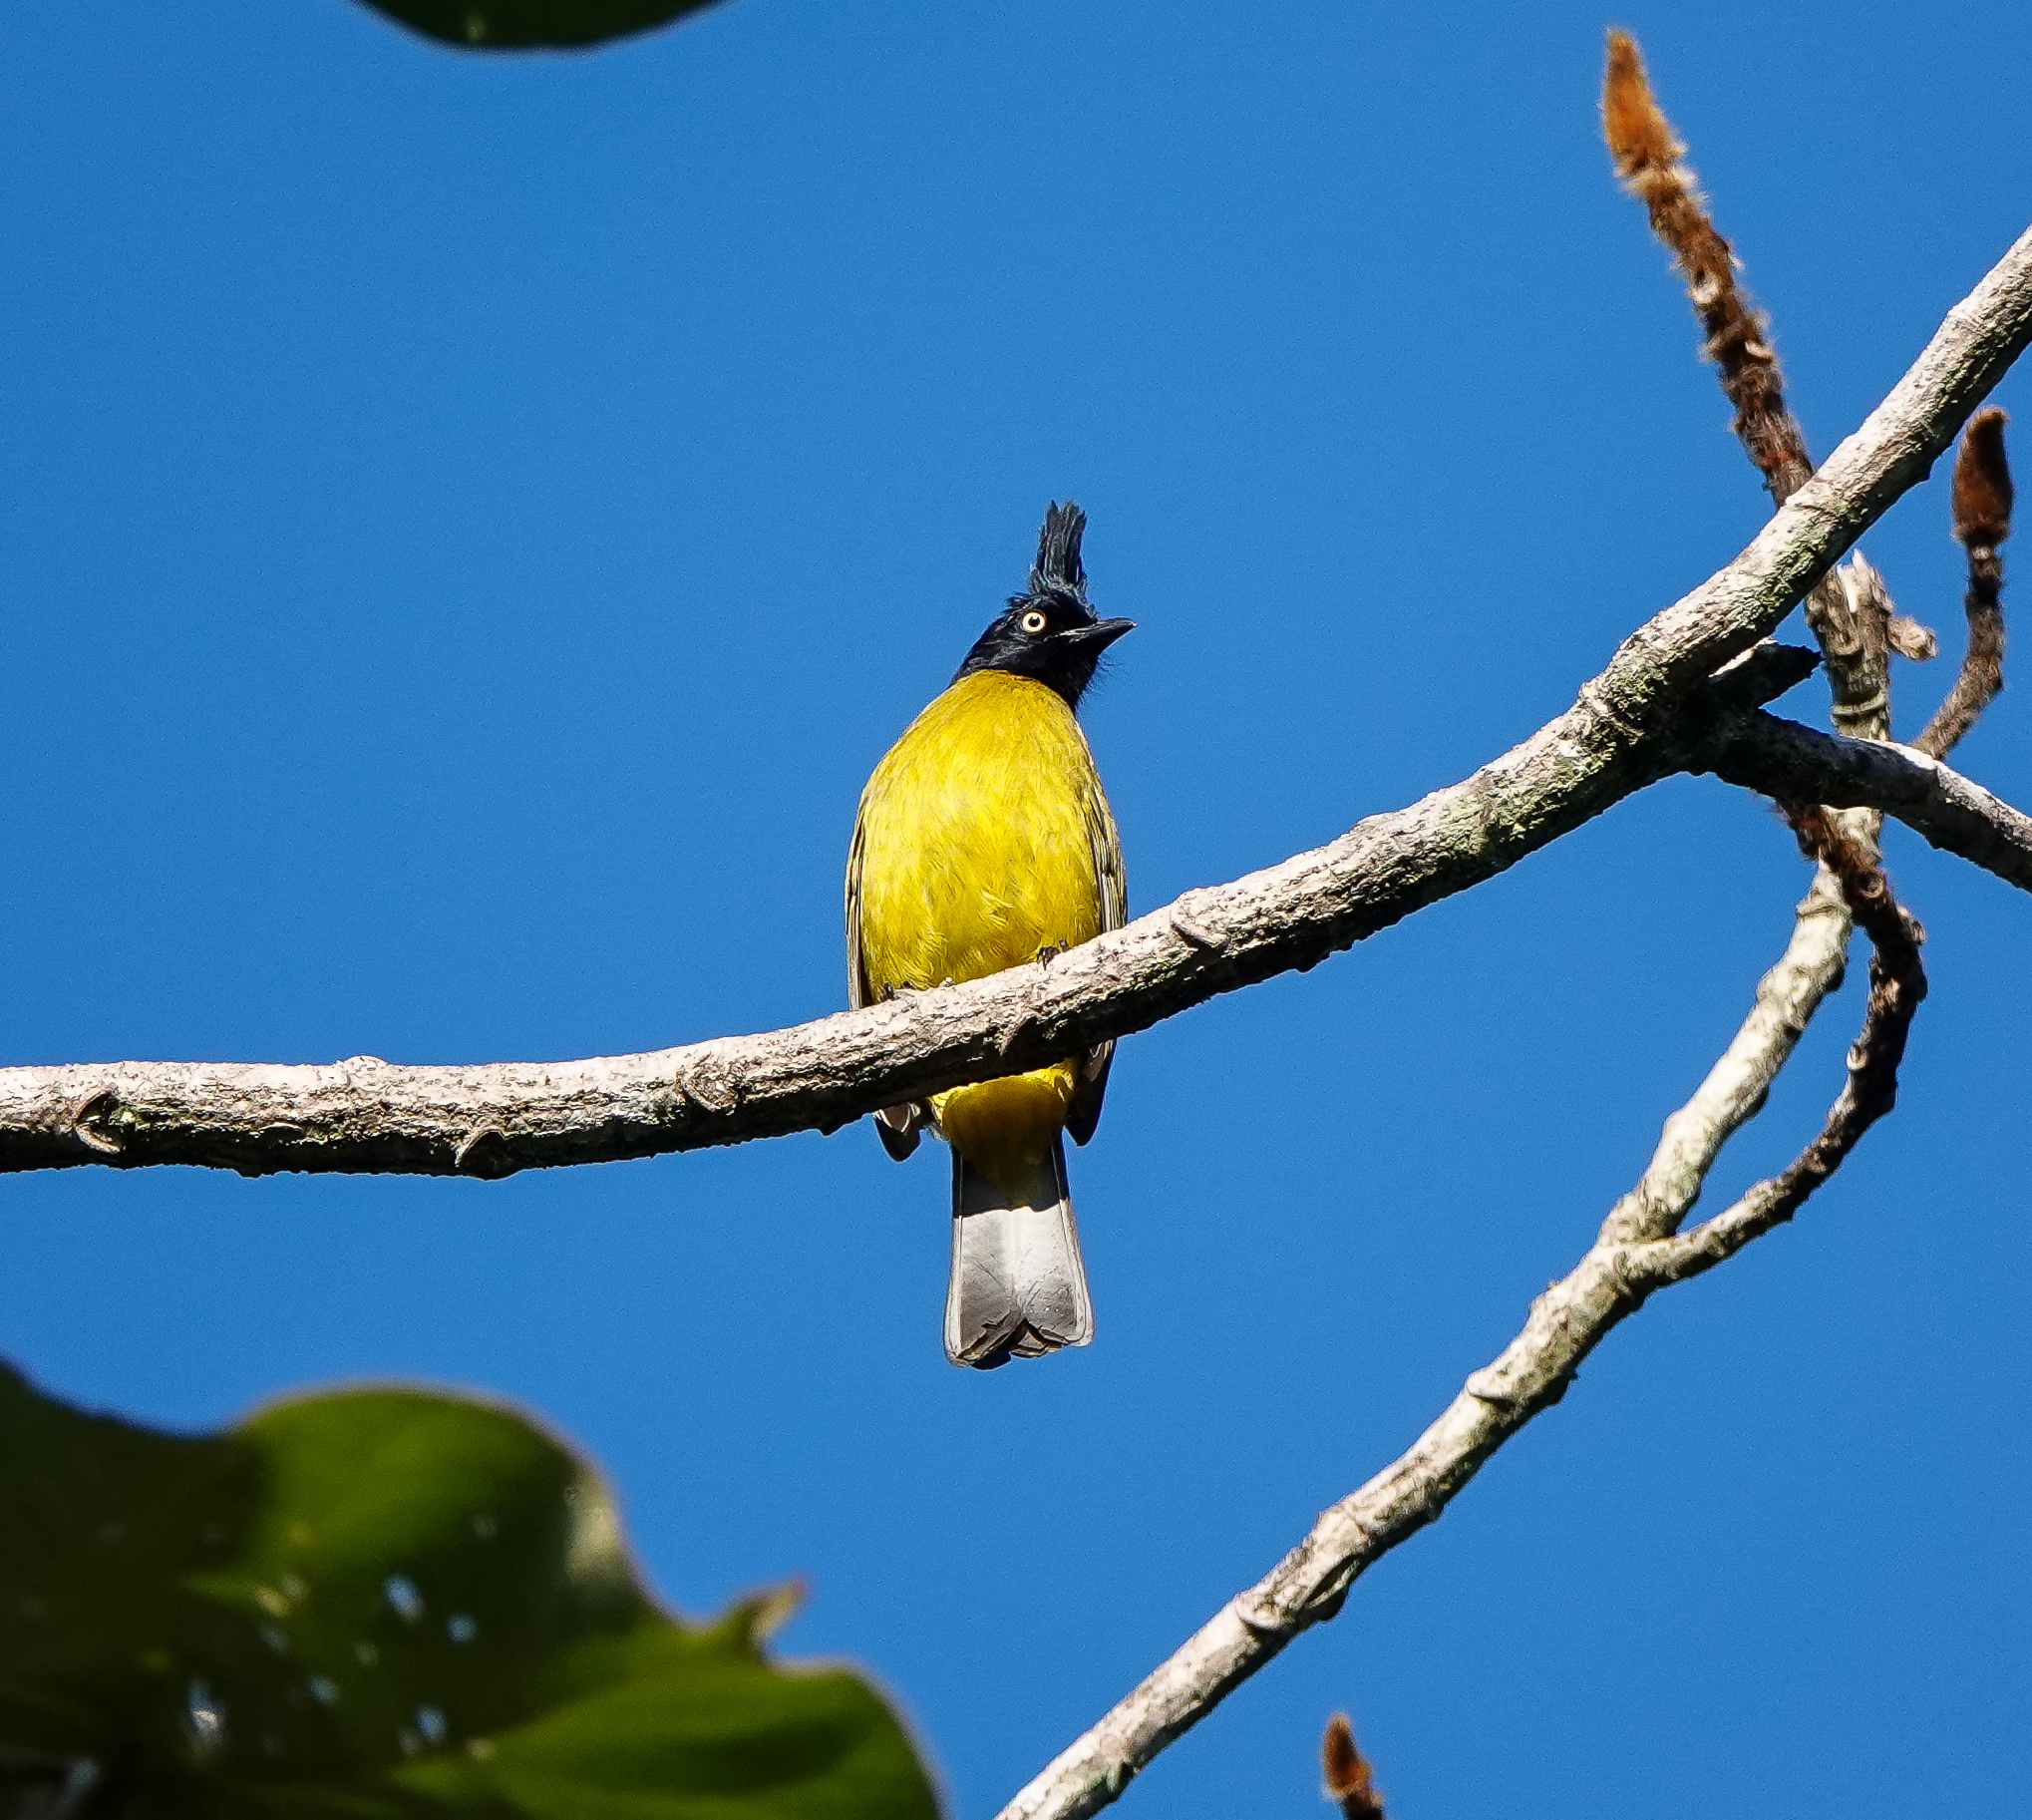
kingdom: Animalia
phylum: Chordata
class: Aves
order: Passeriformes
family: Pycnonotidae
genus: Pycnonotus
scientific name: Pycnonotus flaviventris
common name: Black-crested bulbul
